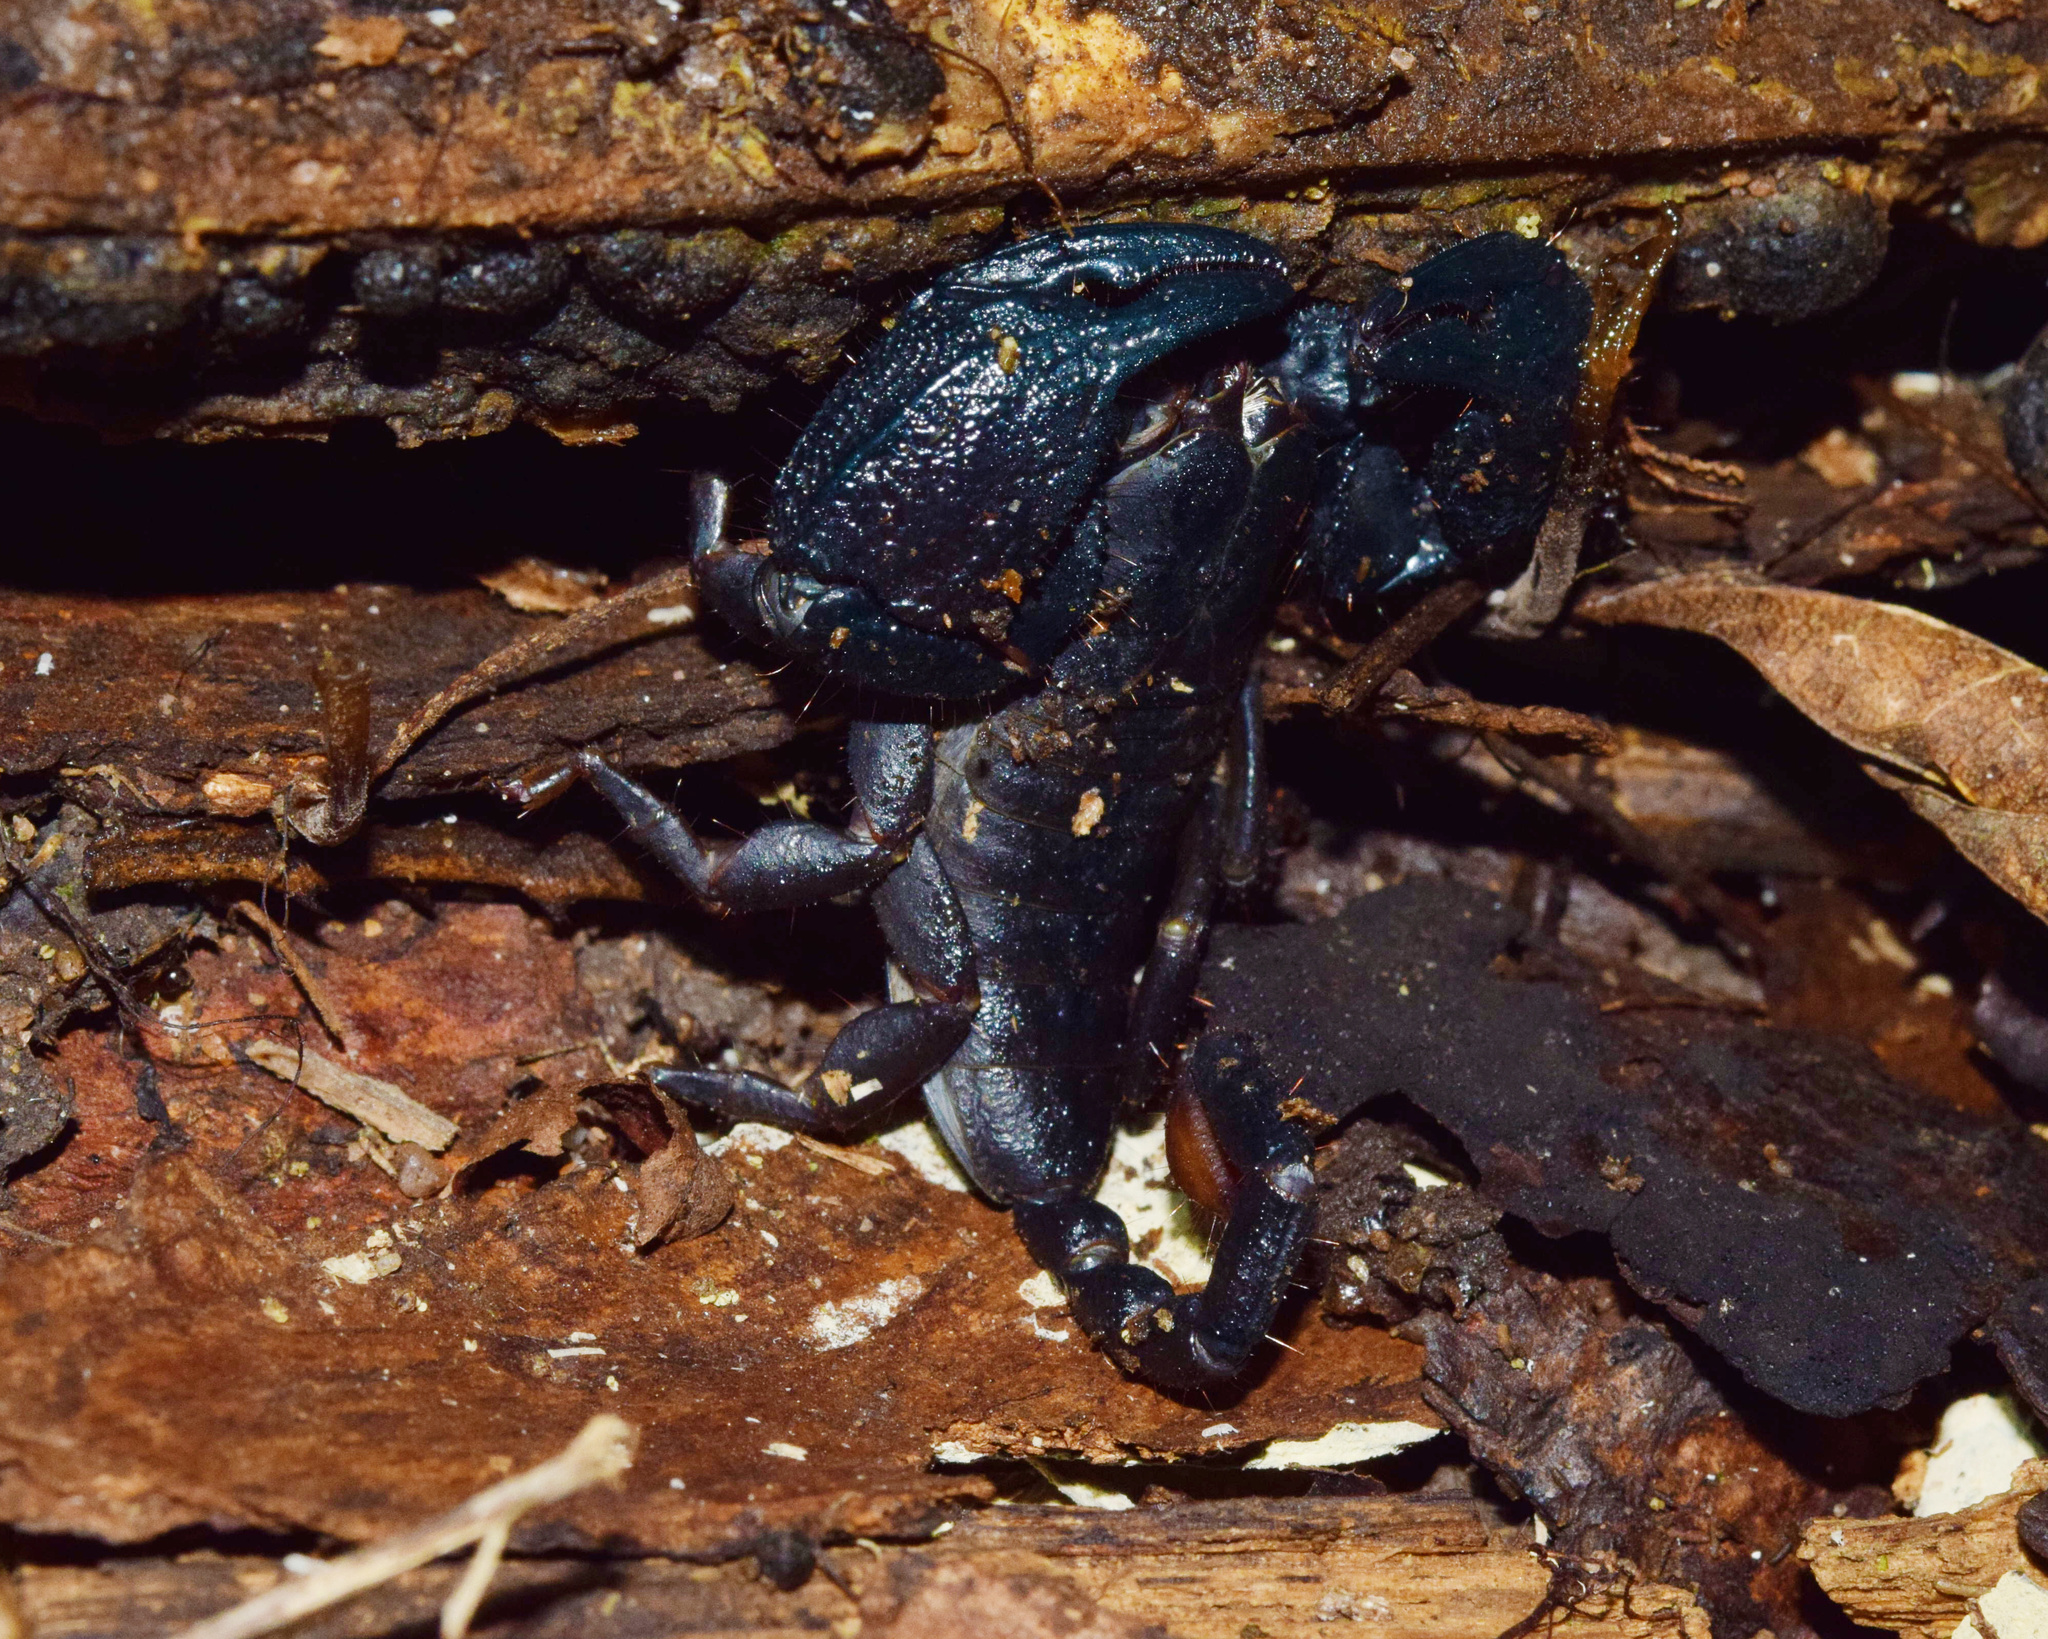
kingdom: Animalia
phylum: Arthropoda
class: Arachnida
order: Scorpiones
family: Hormuridae
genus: Opisthacanthus
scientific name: Opisthacanthus validus
